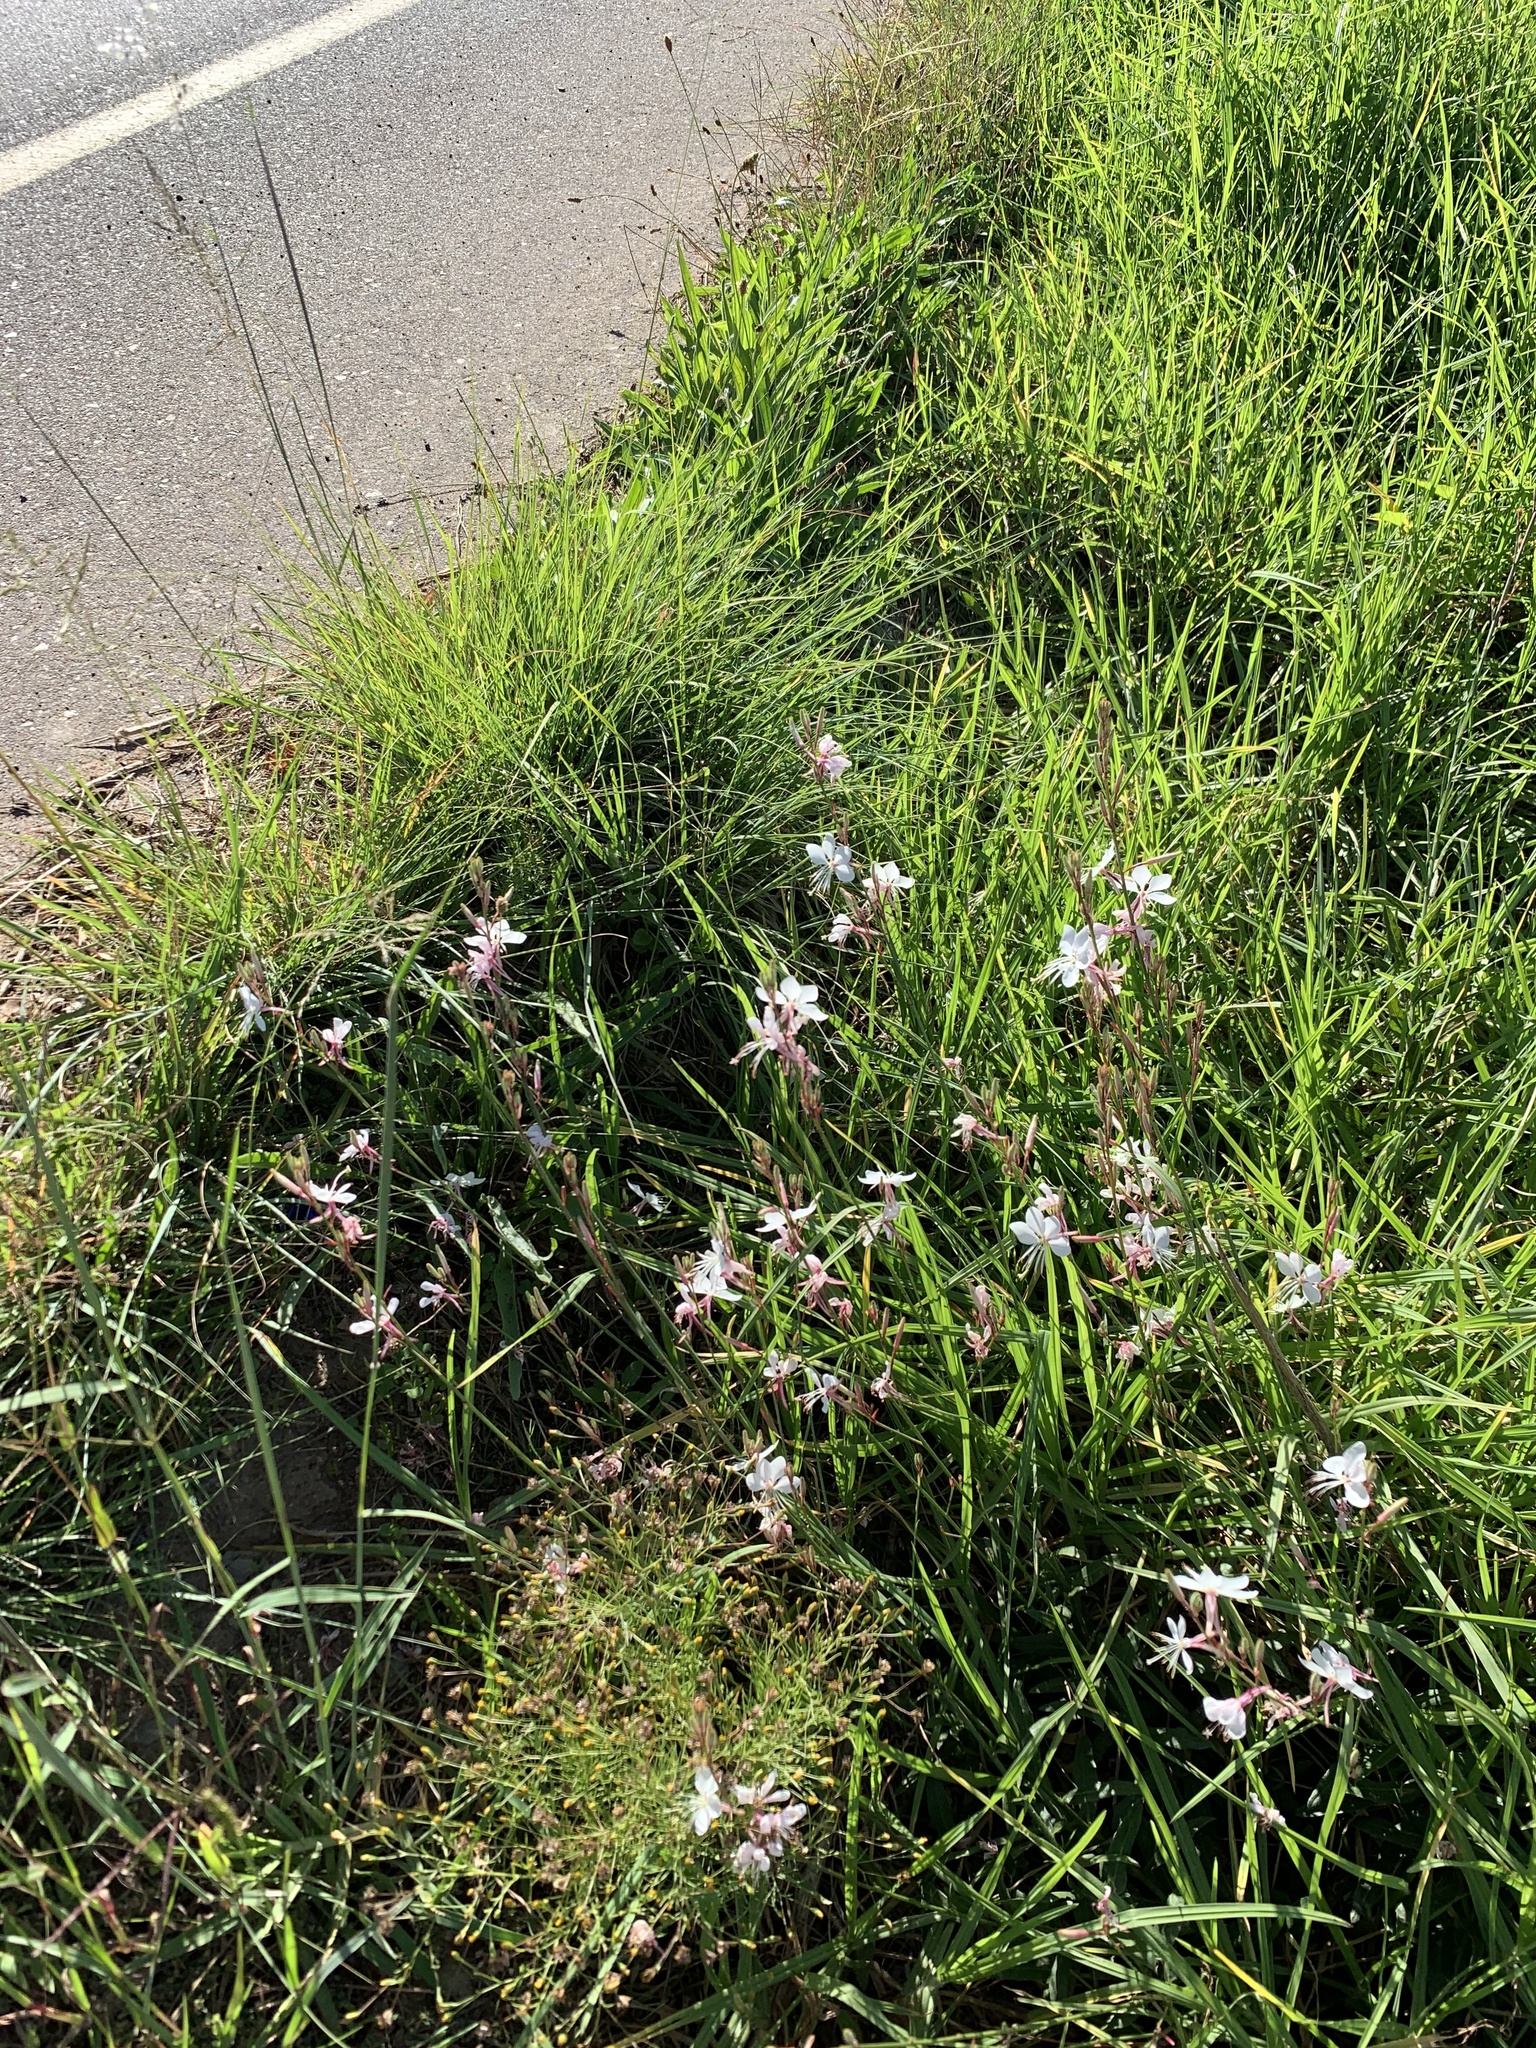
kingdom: Plantae
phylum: Tracheophyta
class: Magnoliopsida
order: Myrtales
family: Onagraceae
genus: Oenothera
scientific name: Oenothera lindheimeri
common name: Lindheimer's beeblossom
